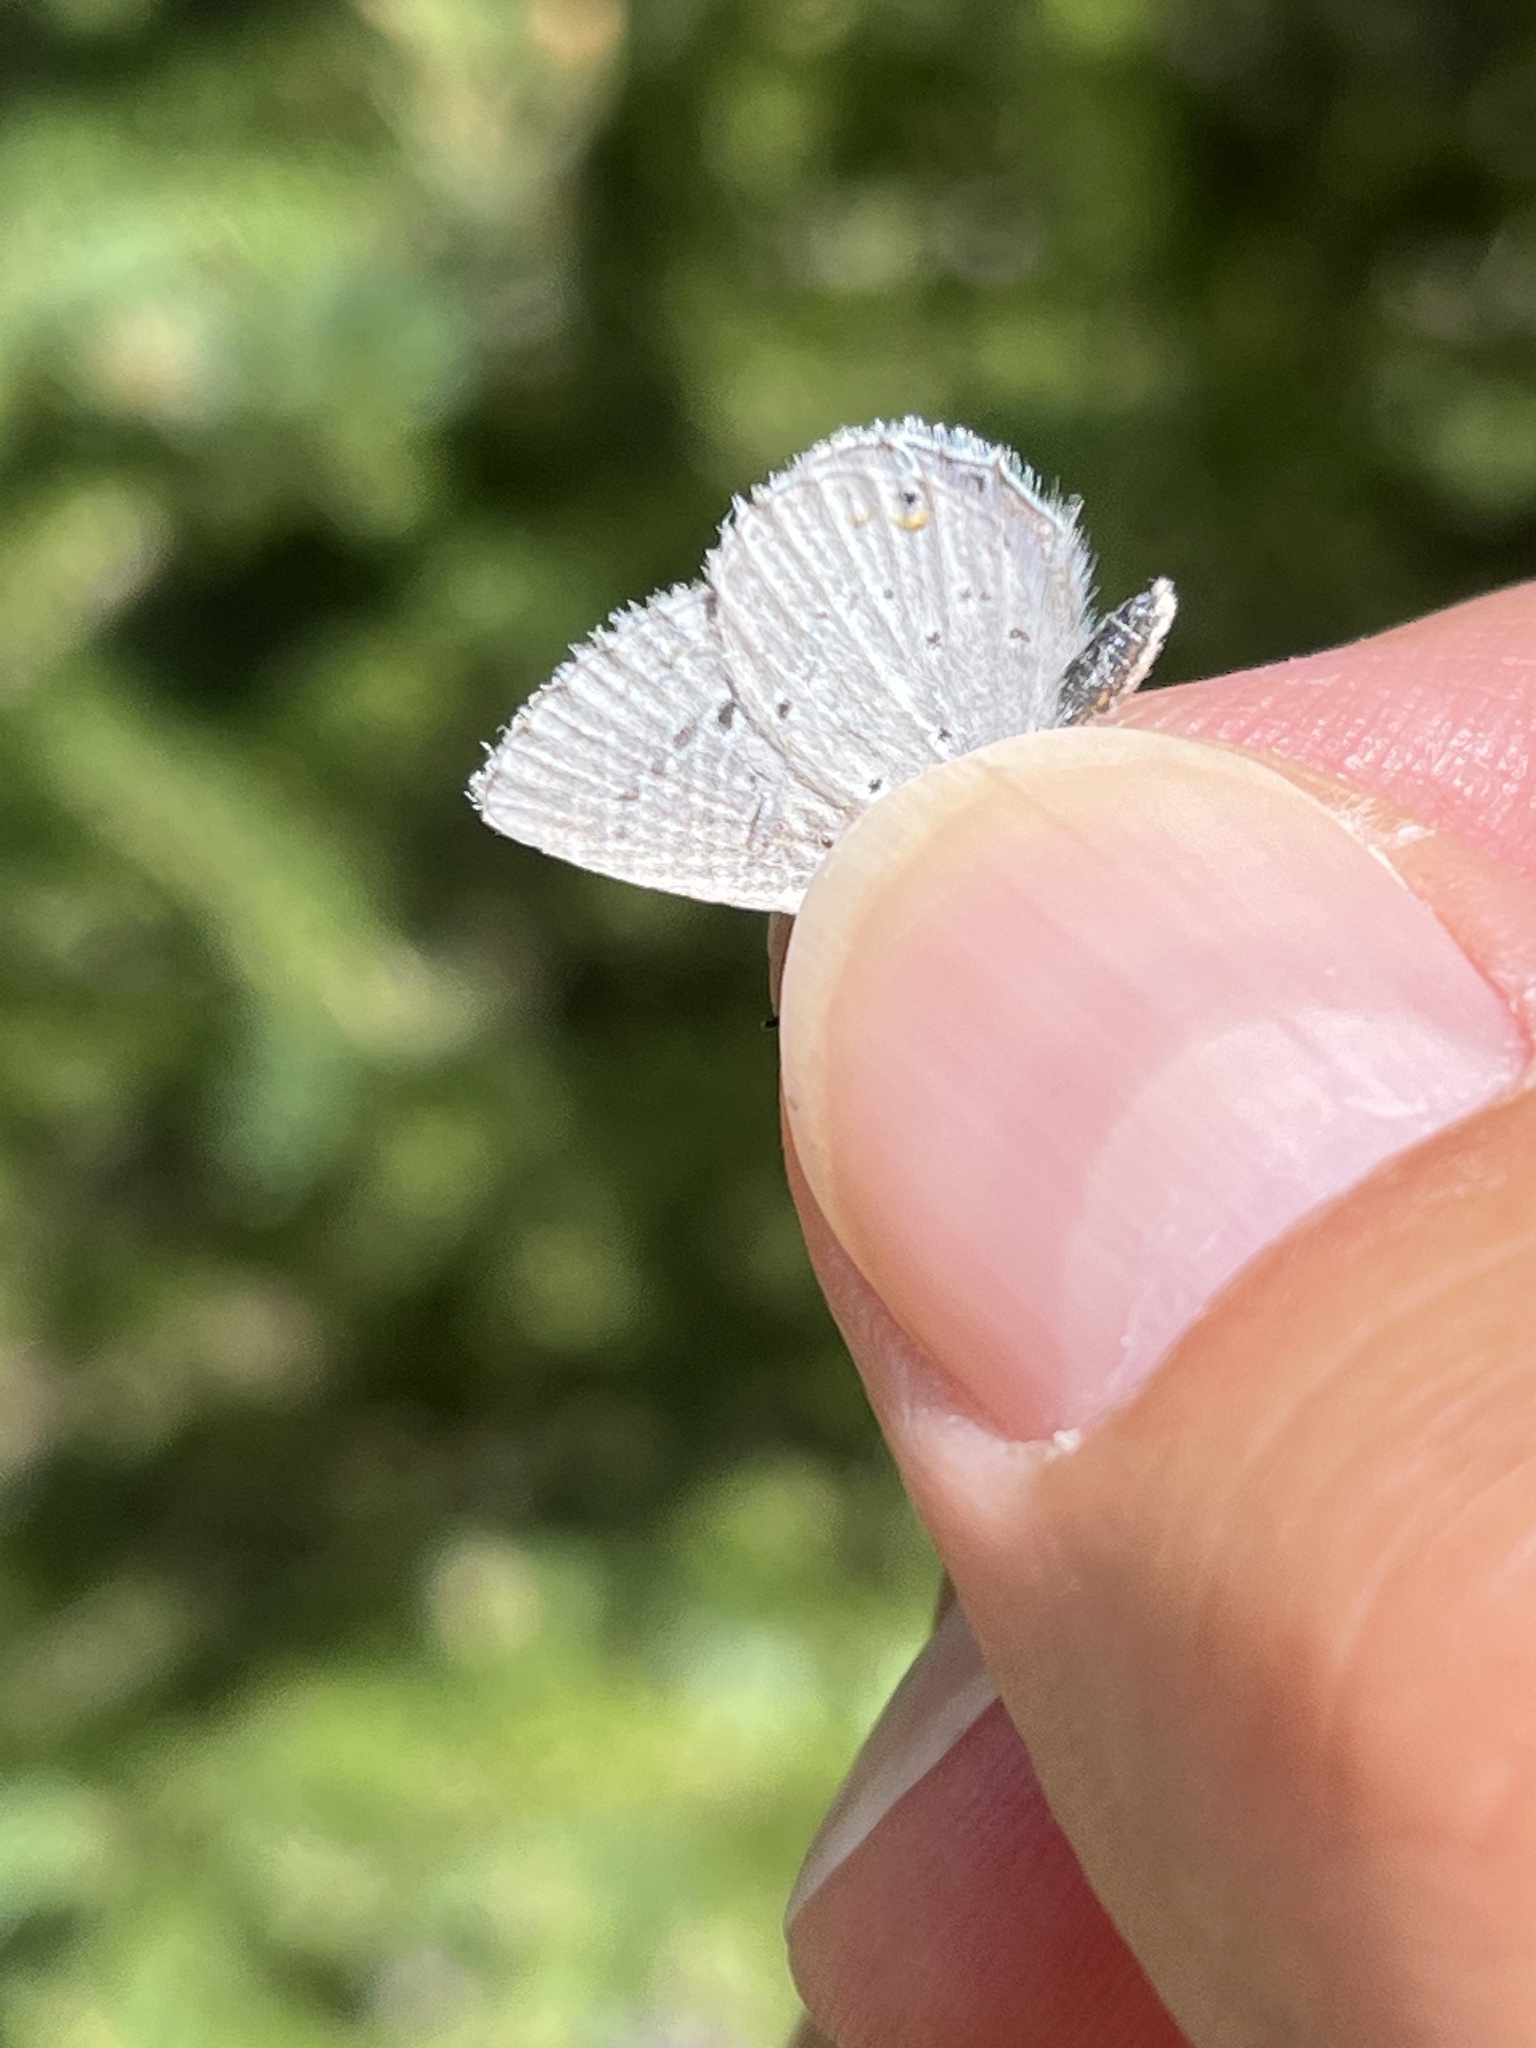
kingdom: Animalia
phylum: Arthropoda
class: Insecta
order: Lepidoptera
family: Lycaenidae
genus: Elkalyce
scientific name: Elkalyce amyntula
